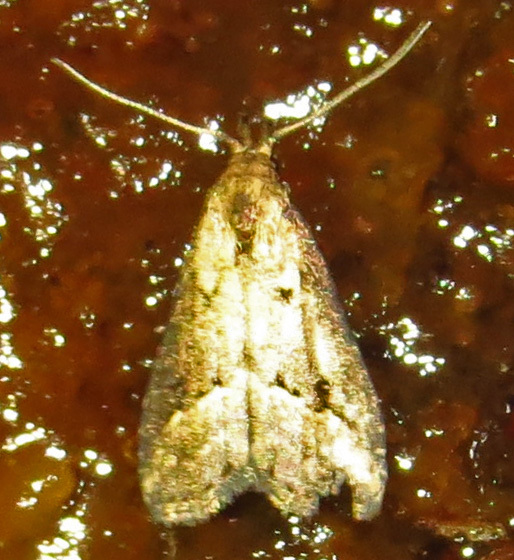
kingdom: Animalia
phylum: Arthropoda
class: Insecta
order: Lepidoptera
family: Erebidae
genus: Schrankia
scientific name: Schrankia
